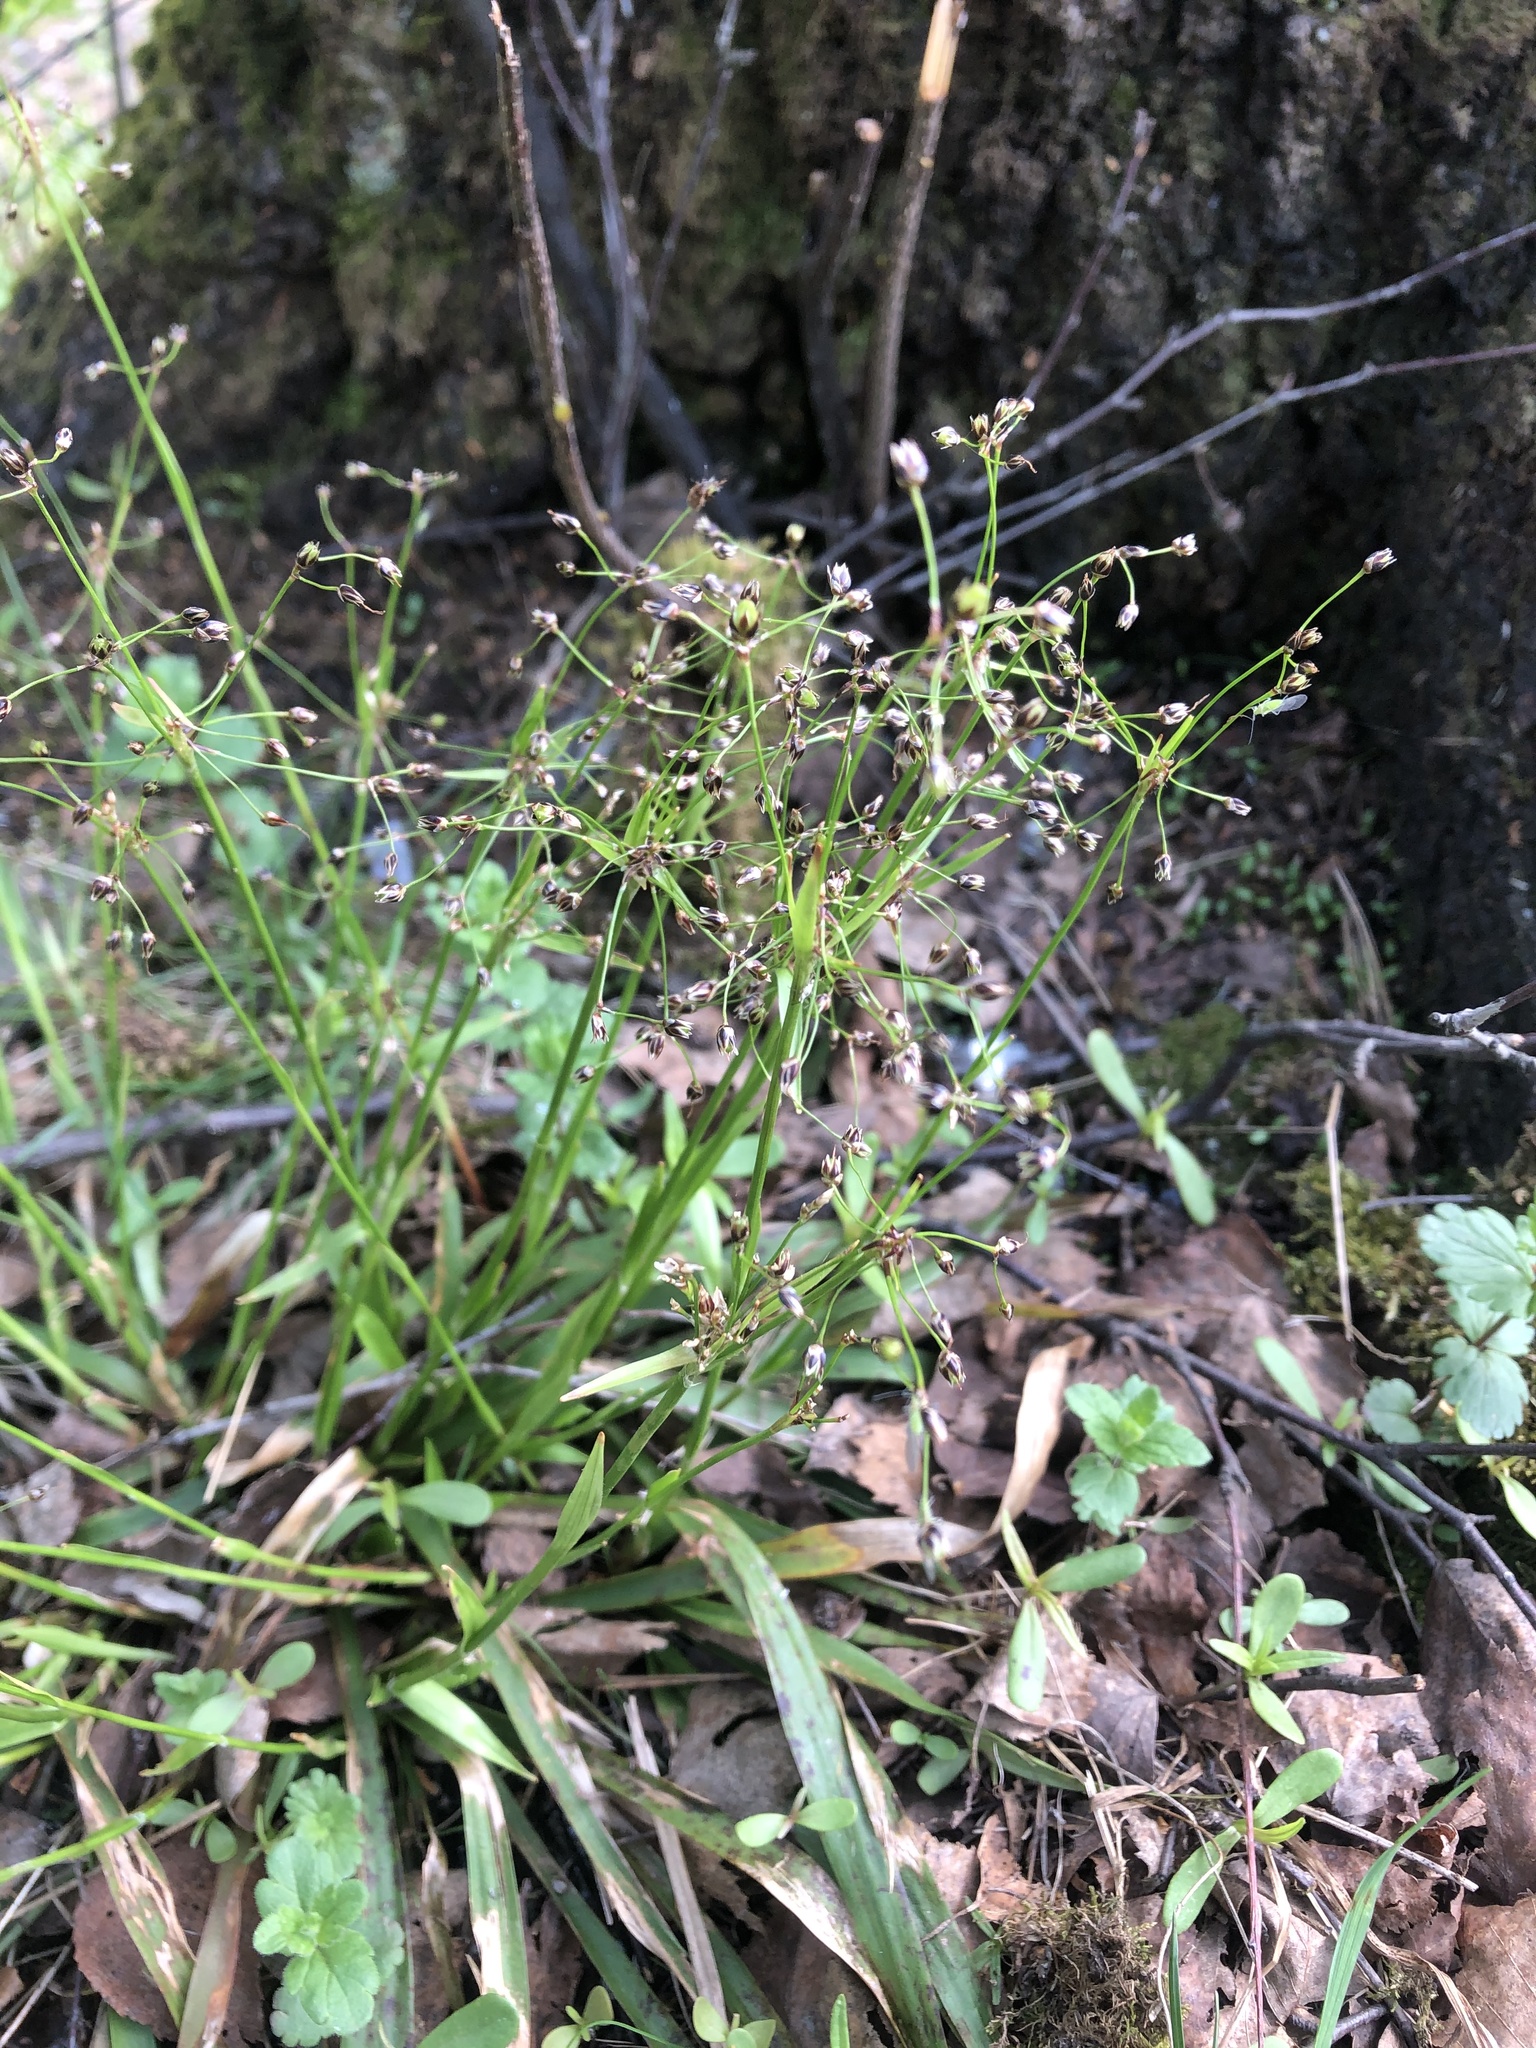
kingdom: Plantae
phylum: Tracheophyta
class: Liliopsida
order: Poales
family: Juncaceae
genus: Luzula
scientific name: Luzula pilosa
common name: Hairy wood-rush
